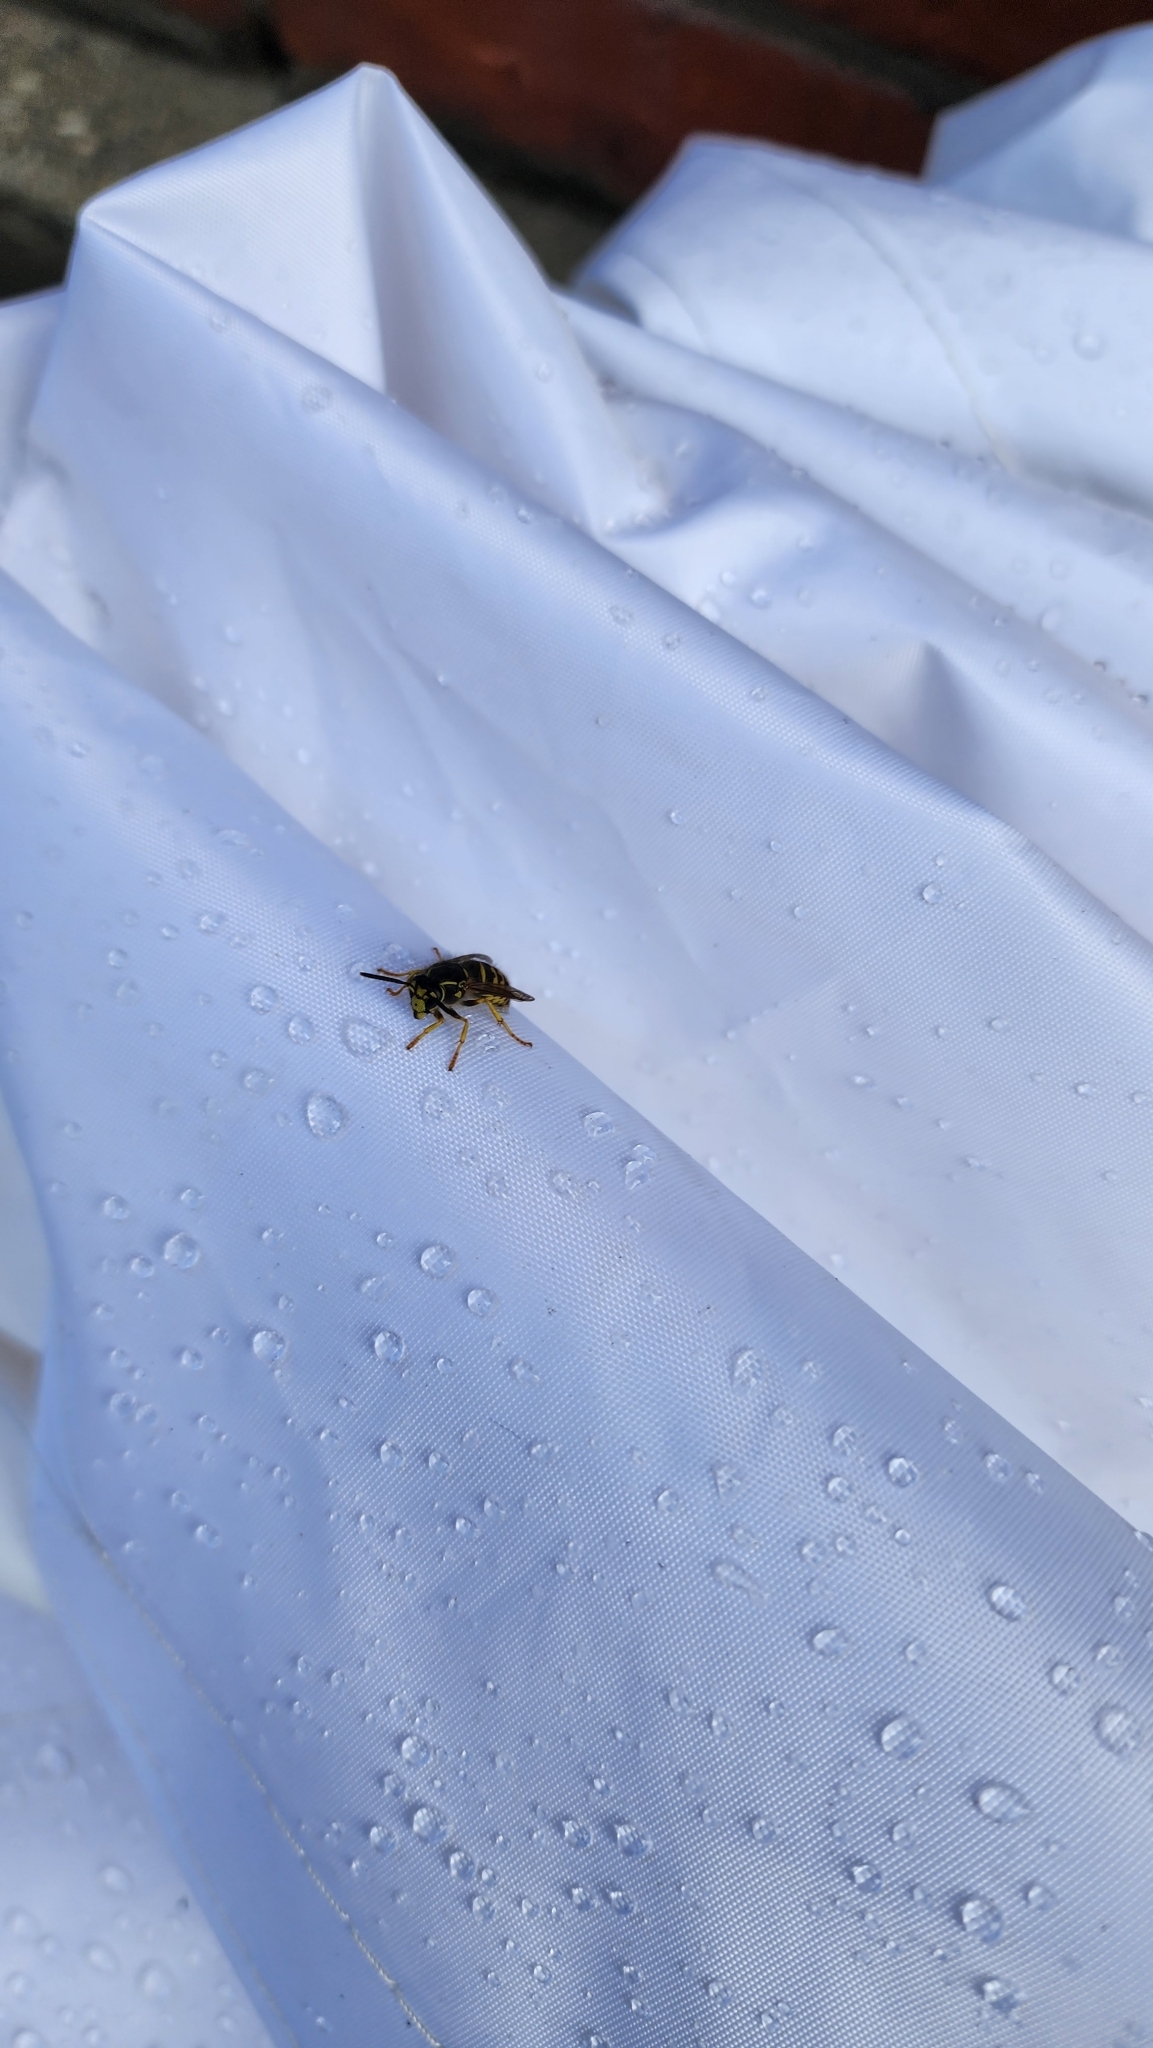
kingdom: Animalia
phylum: Arthropoda
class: Insecta
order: Hymenoptera
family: Vespidae
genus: Dolichovespula
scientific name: Dolichovespula arenaria
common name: Aerial yellowjacket
